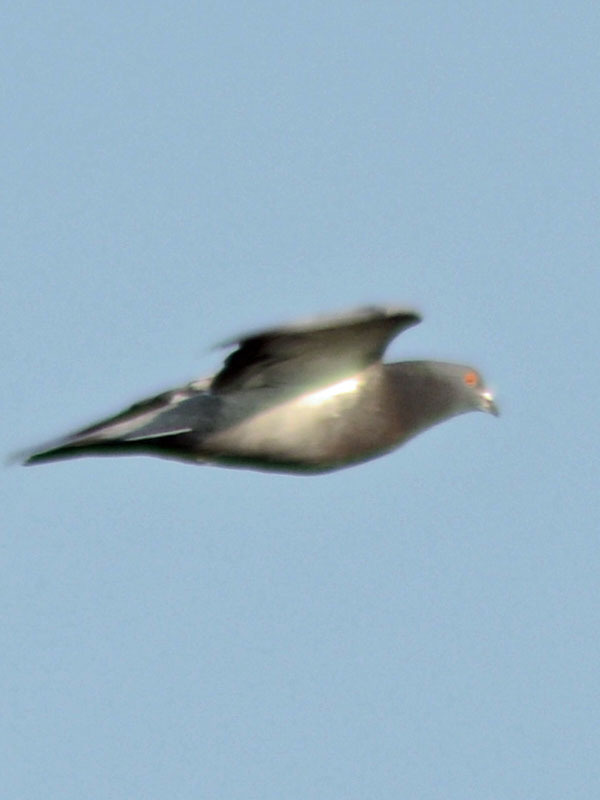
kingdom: Animalia
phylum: Chordata
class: Aves
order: Columbiformes
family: Columbidae
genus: Columba
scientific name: Columba livia
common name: Rock pigeon
